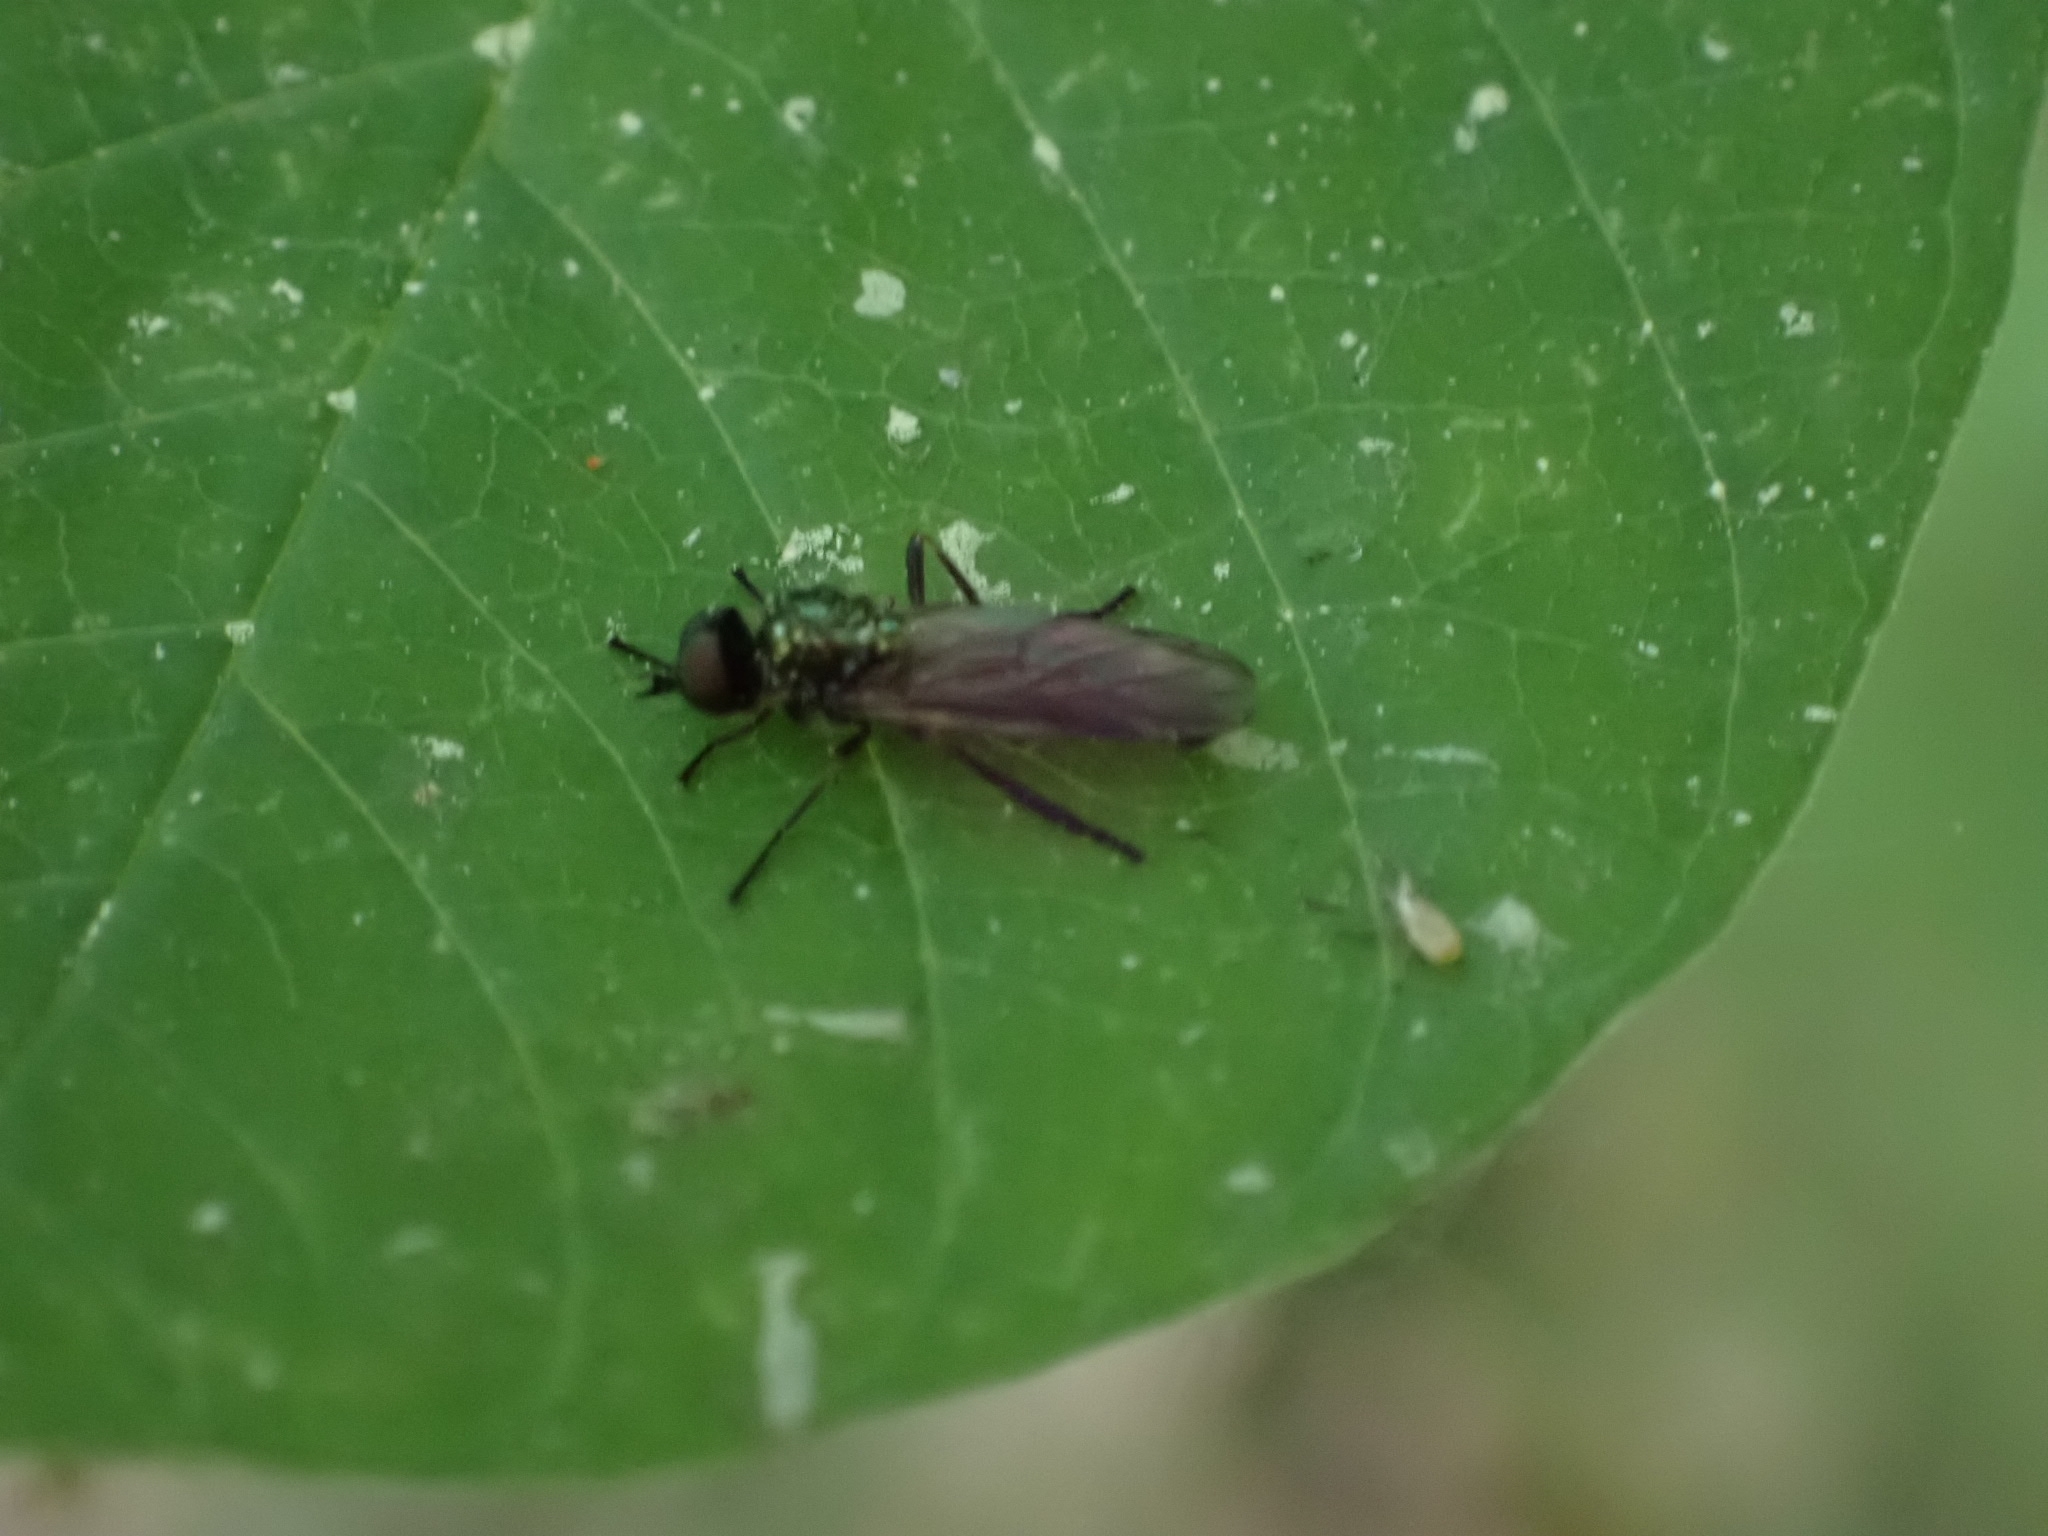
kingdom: Animalia
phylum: Arthropoda
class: Insecta
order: Diptera
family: Stratiomyidae
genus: Actina
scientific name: Actina chalybea
